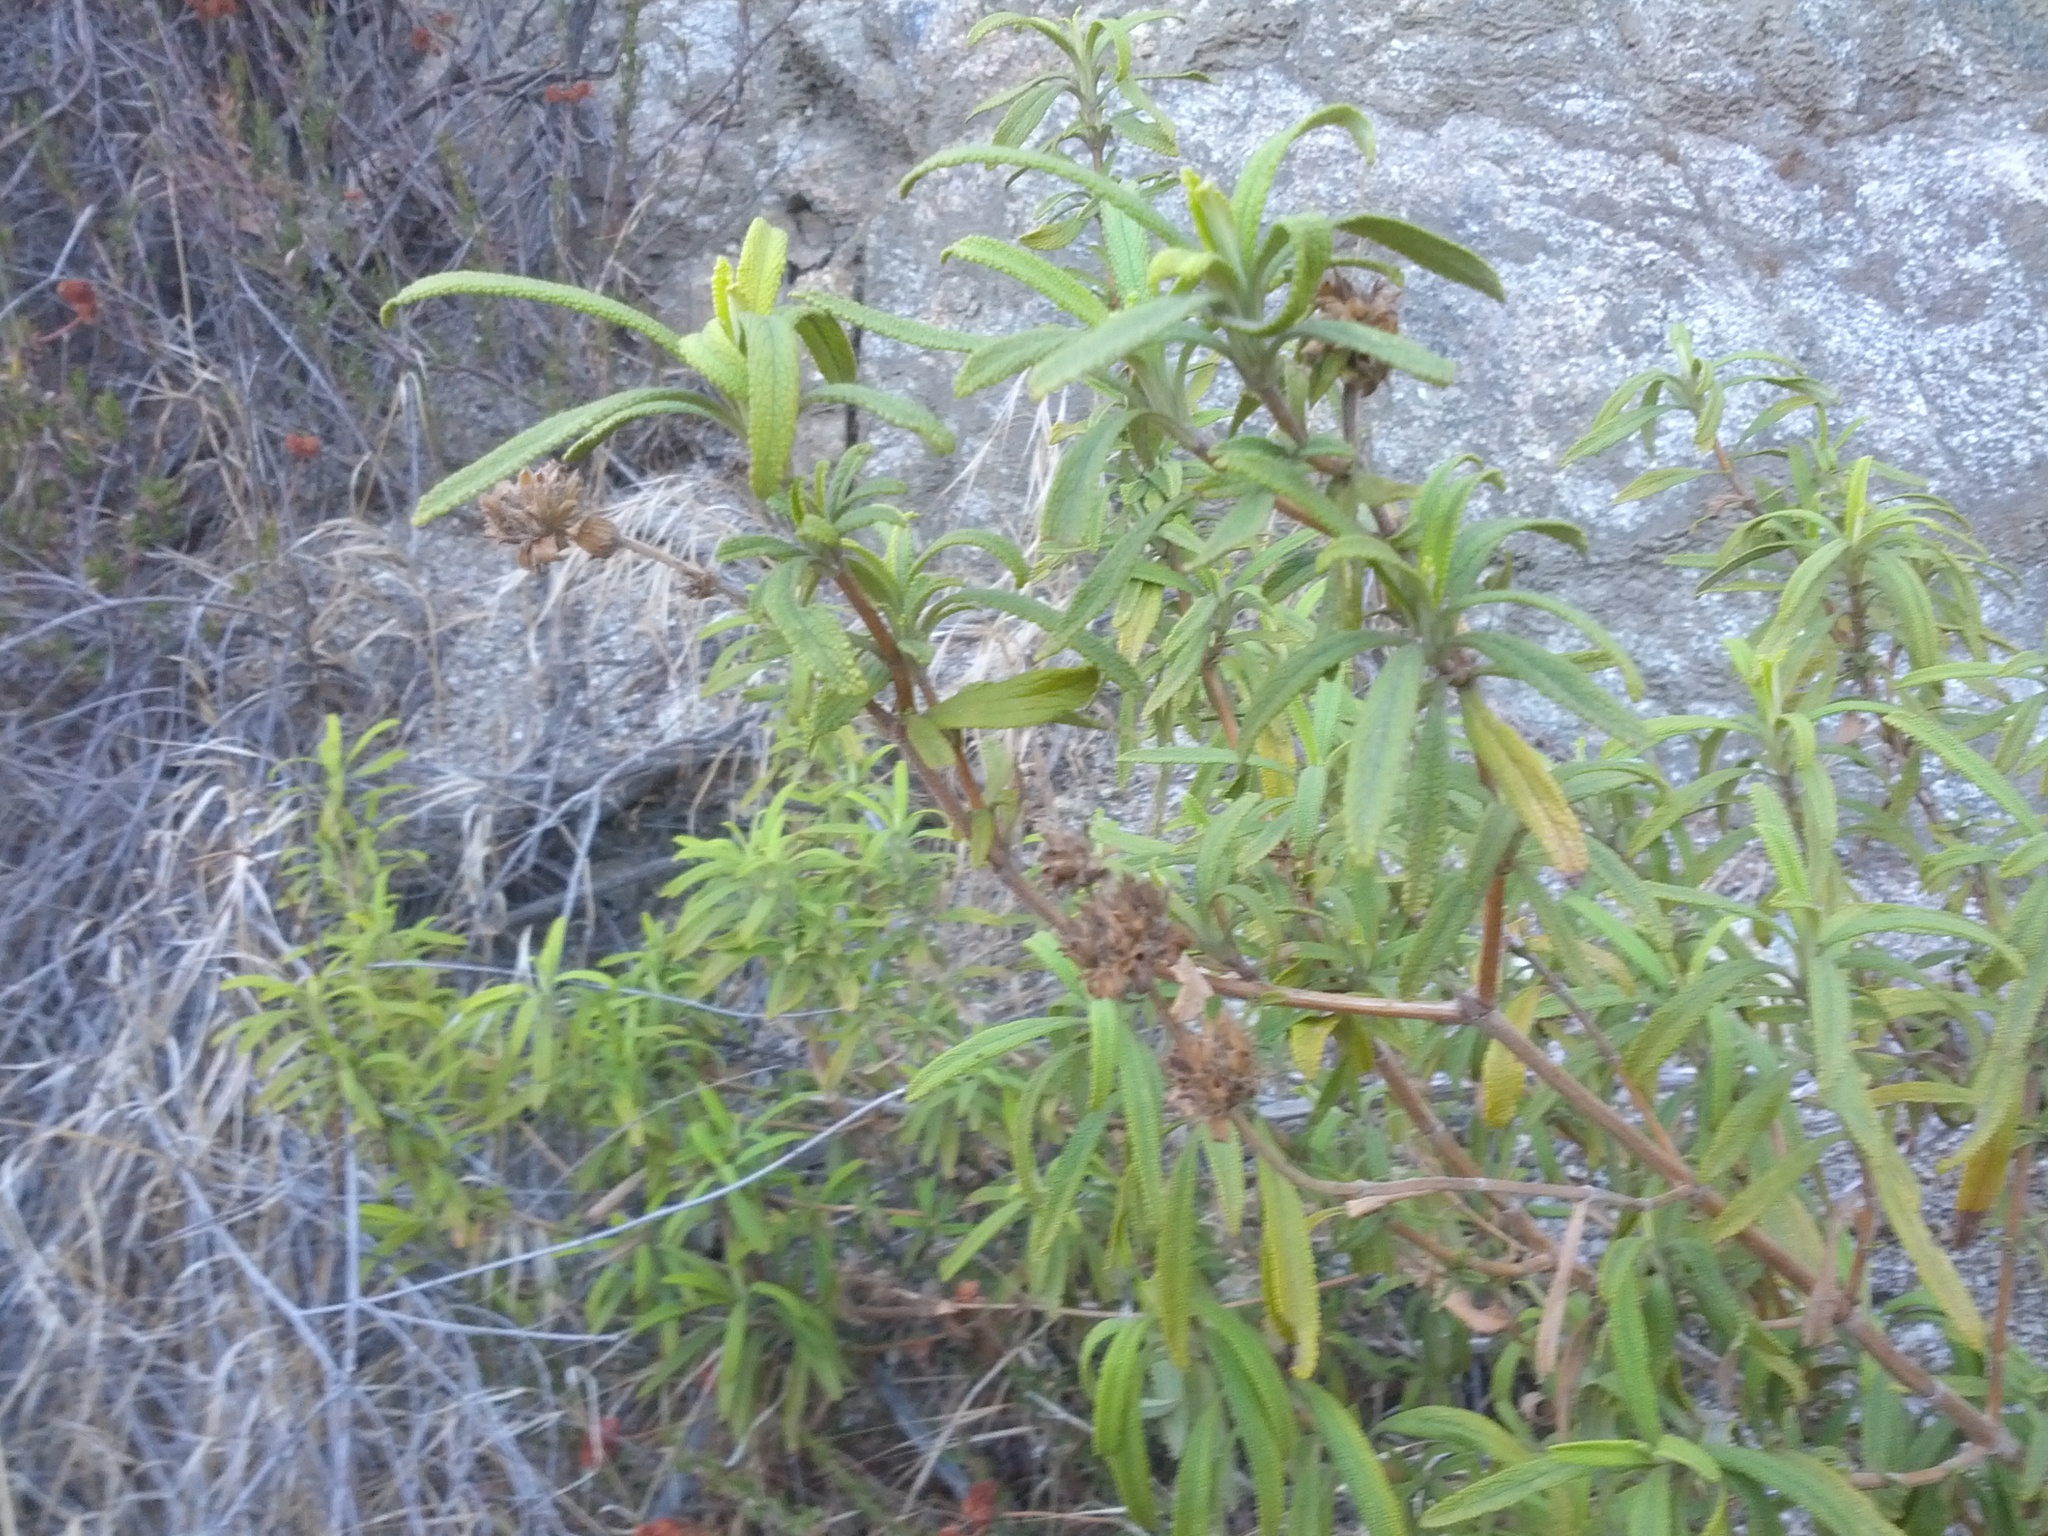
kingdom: Plantae
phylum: Tracheophyta
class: Magnoliopsida
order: Lamiales
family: Lamiaceae
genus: Salvia
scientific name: Salvia mellifera
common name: Black sage
